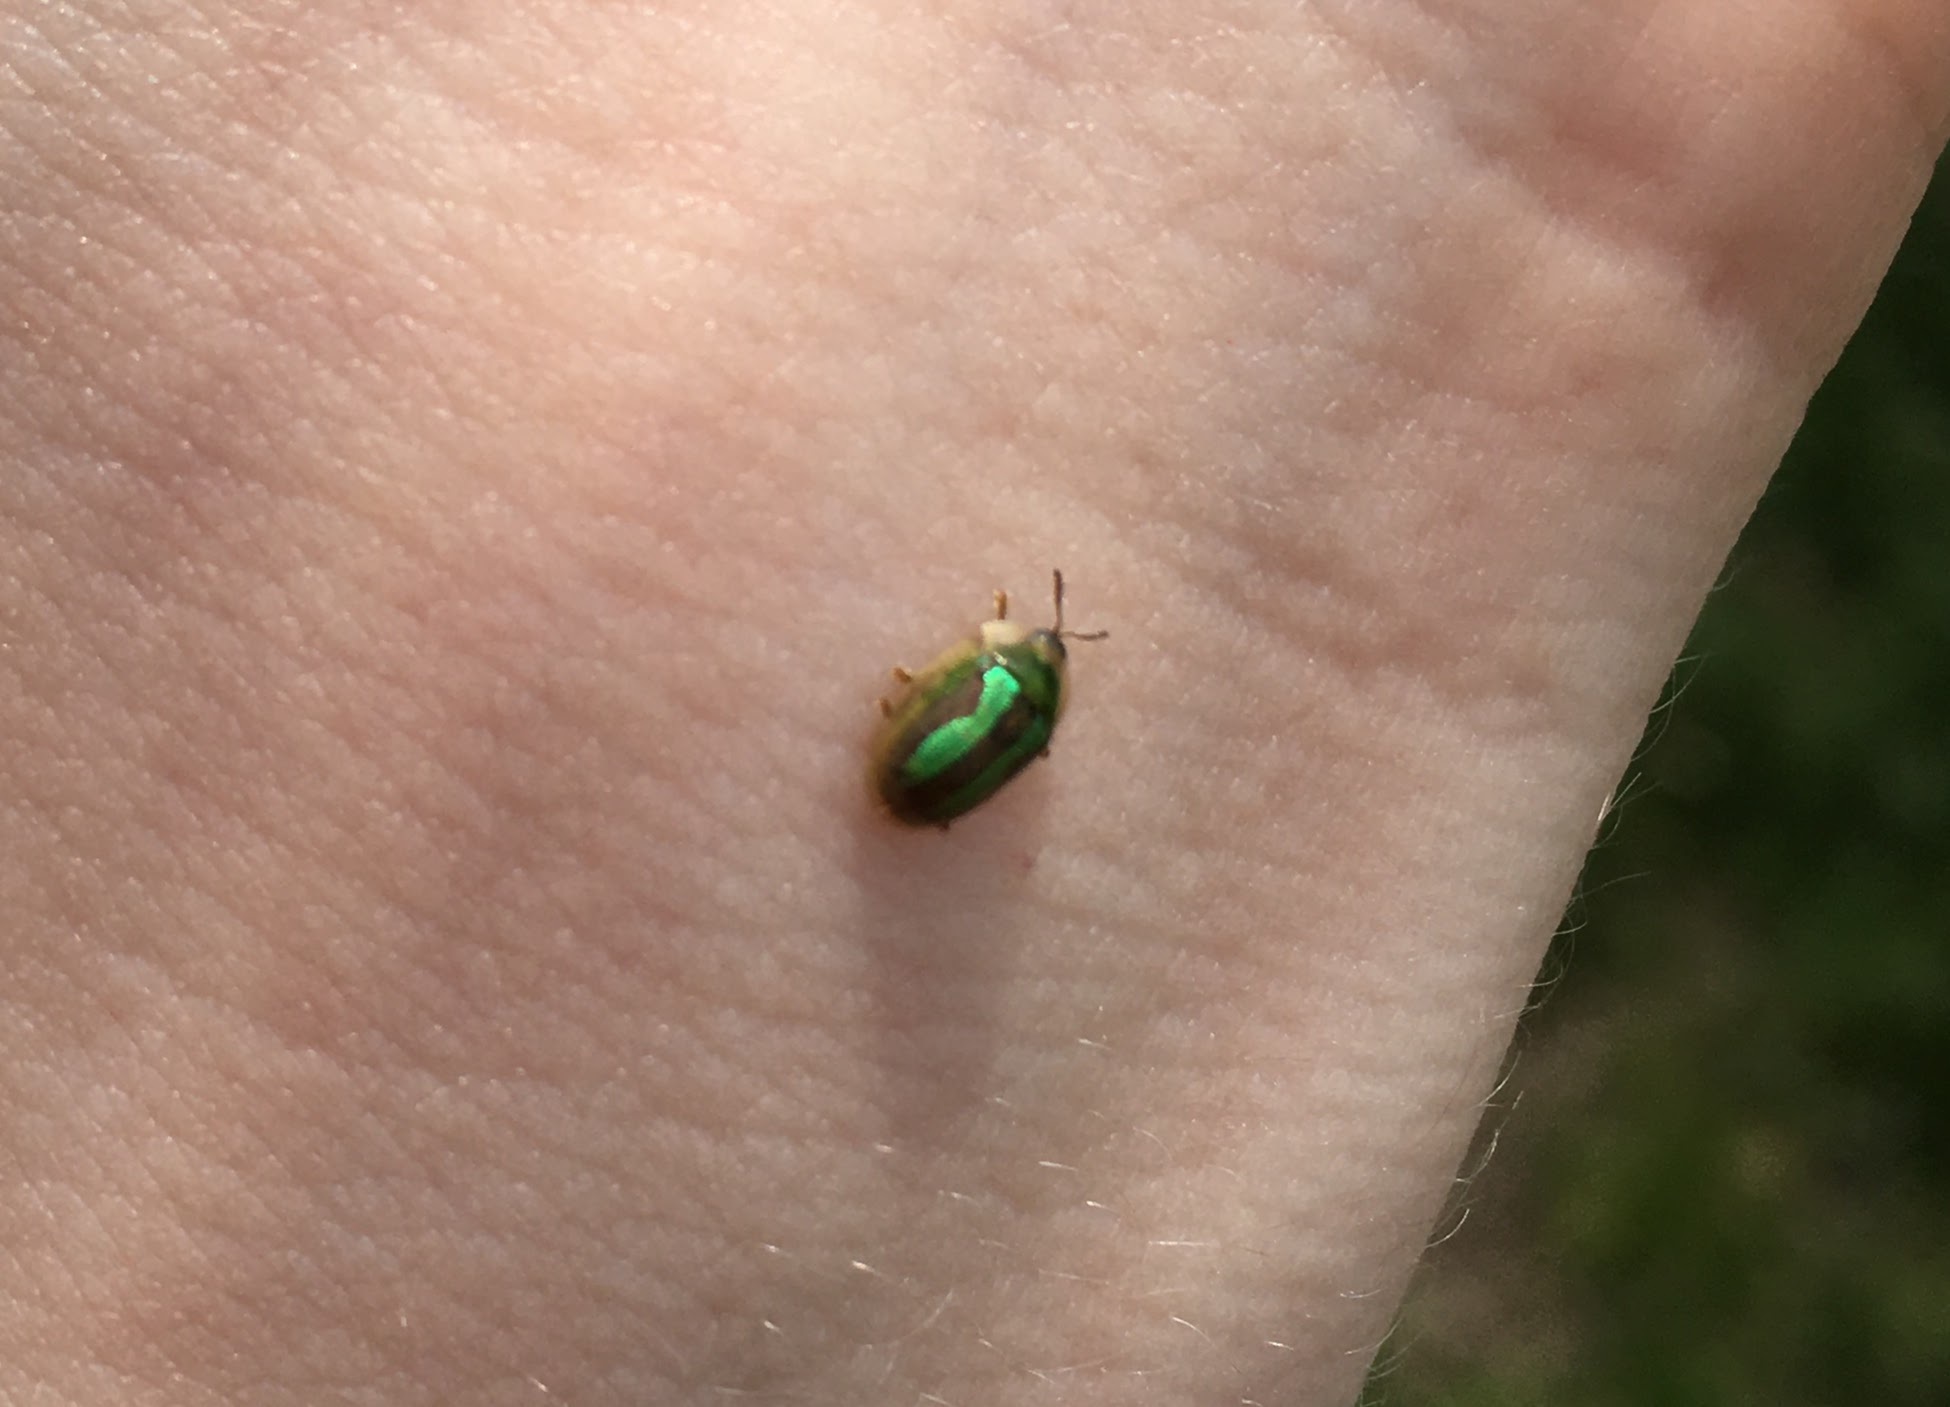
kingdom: Animalia
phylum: Arthropoda
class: Insecta
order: Coleoptera
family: Chrysomelidae
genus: Cassida
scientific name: Cassida vittata
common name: Bordered tortoise beetle
